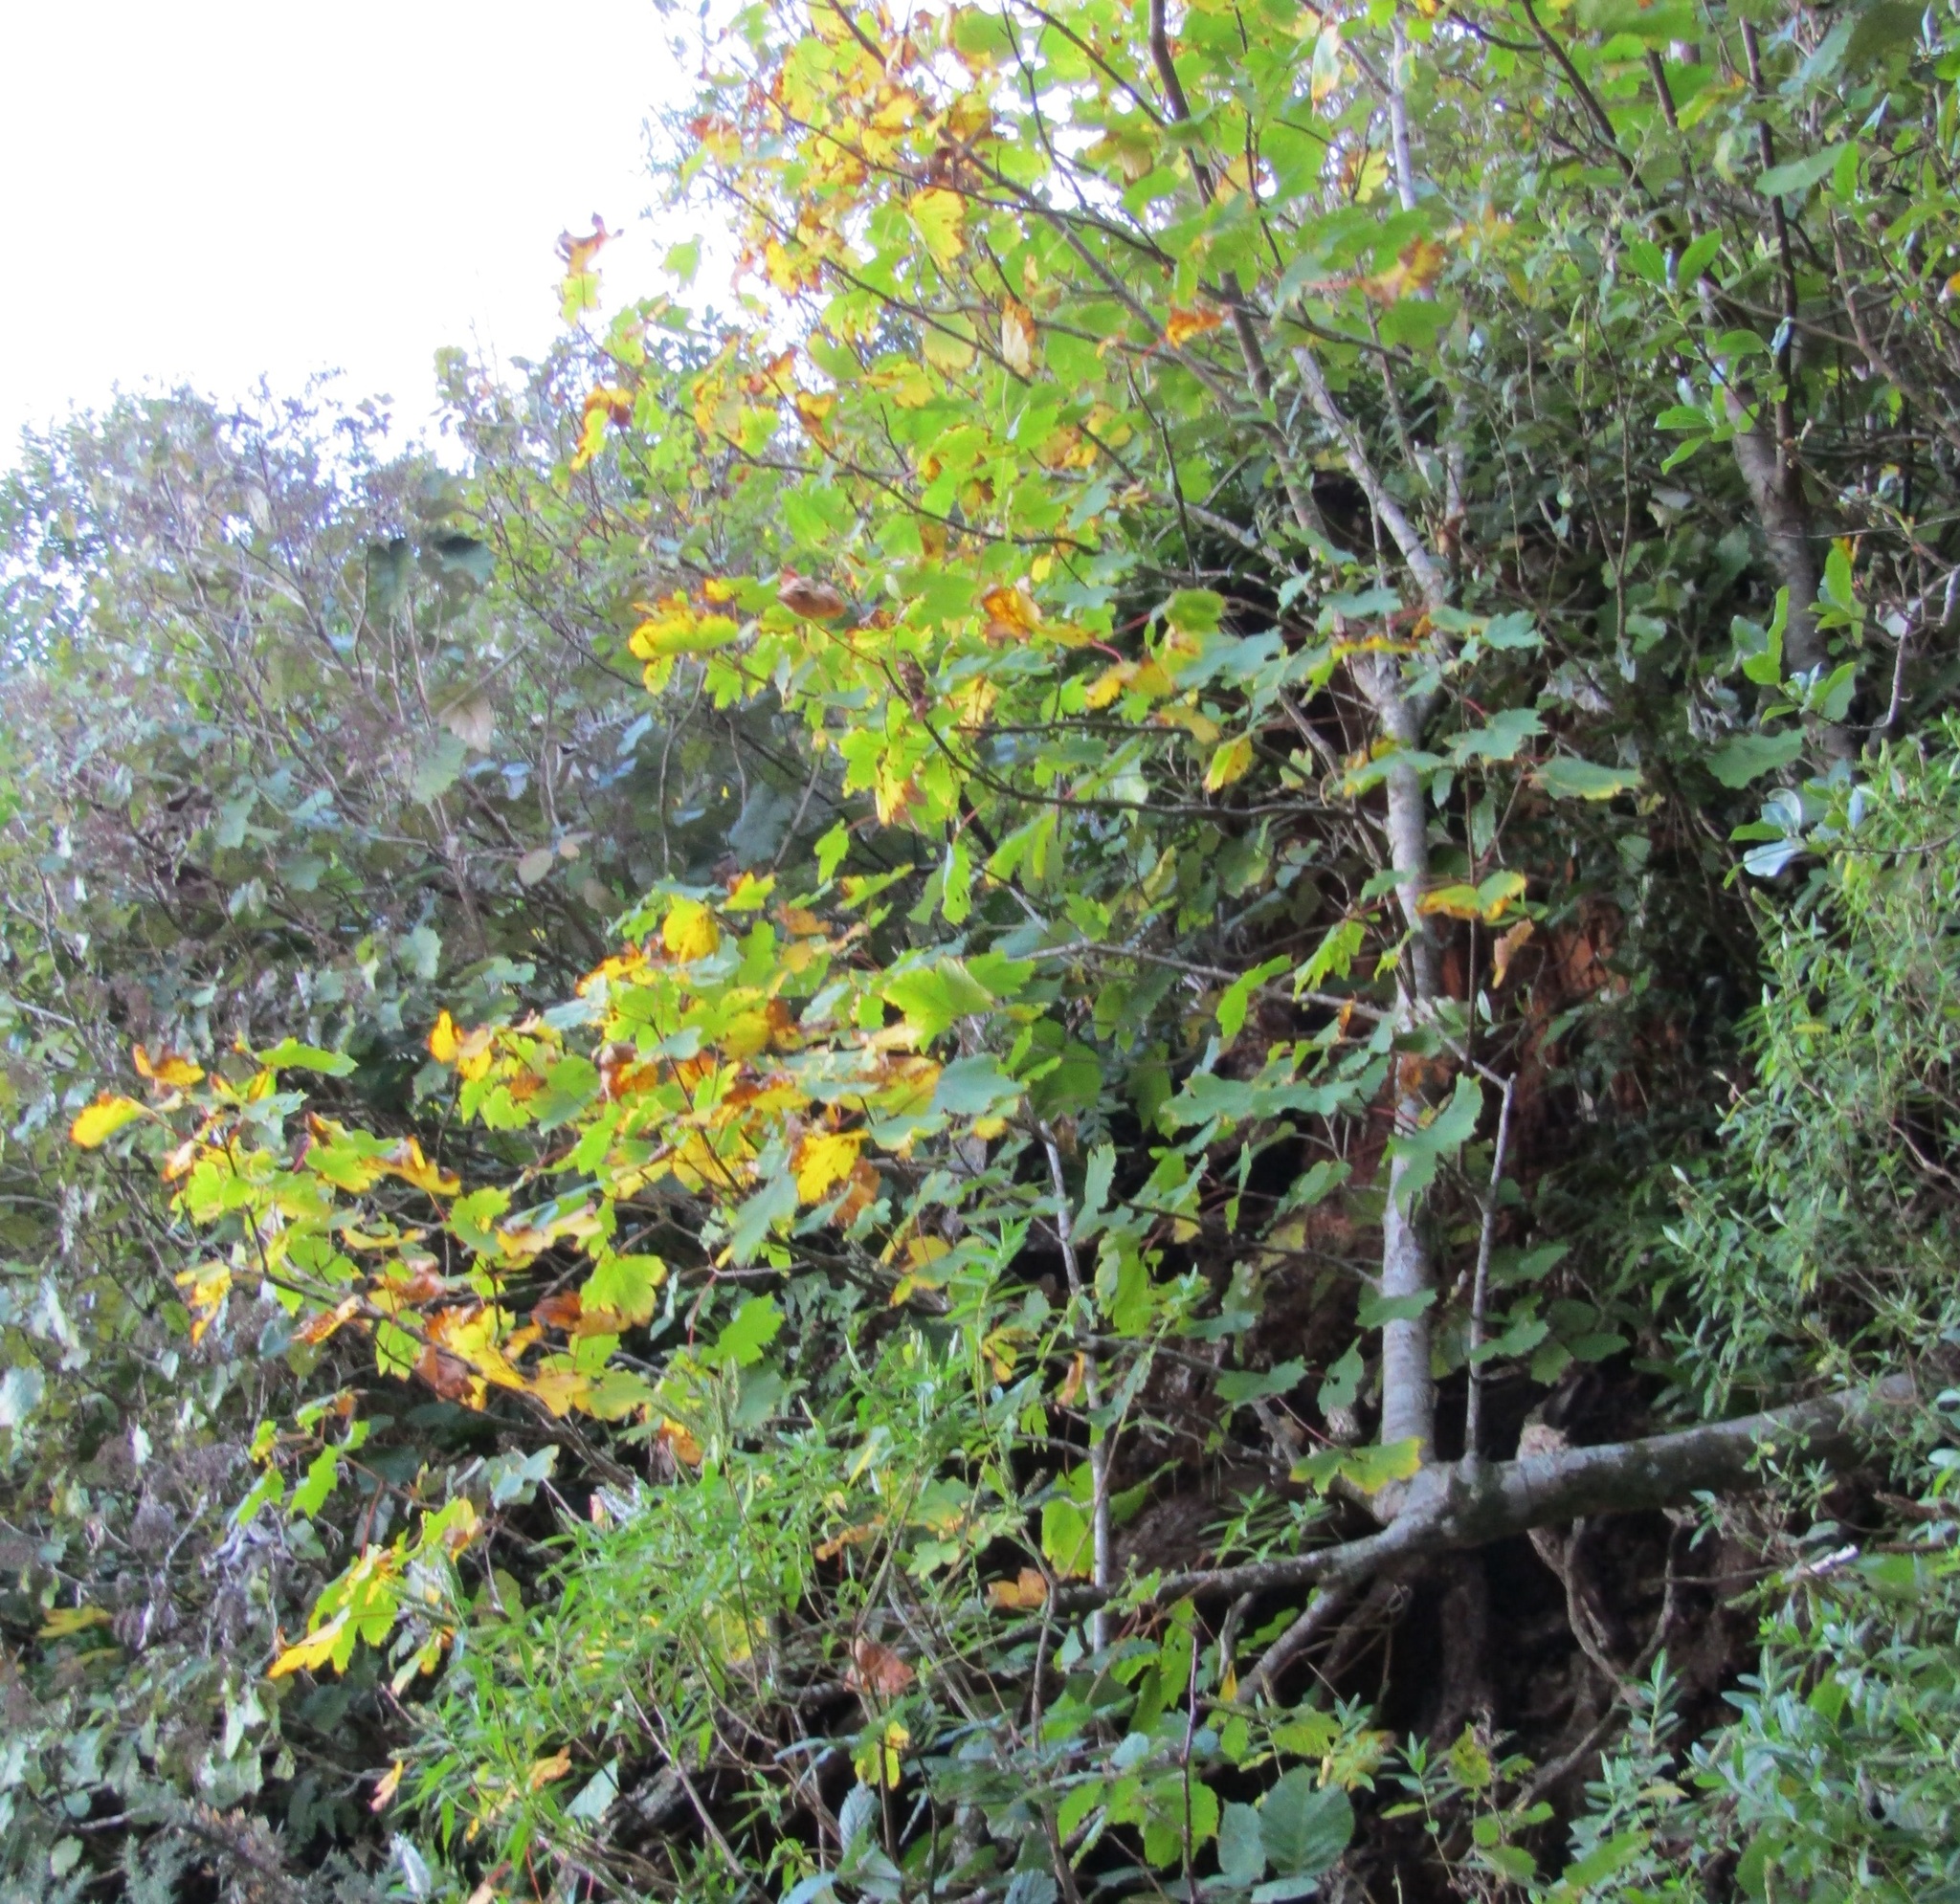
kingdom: Plantae
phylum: Tracheophyta
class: Magnoliopsida
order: Sapindales
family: Sapindaceae
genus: Acer
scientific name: Acer pseudoplatanus
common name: Sycamore
